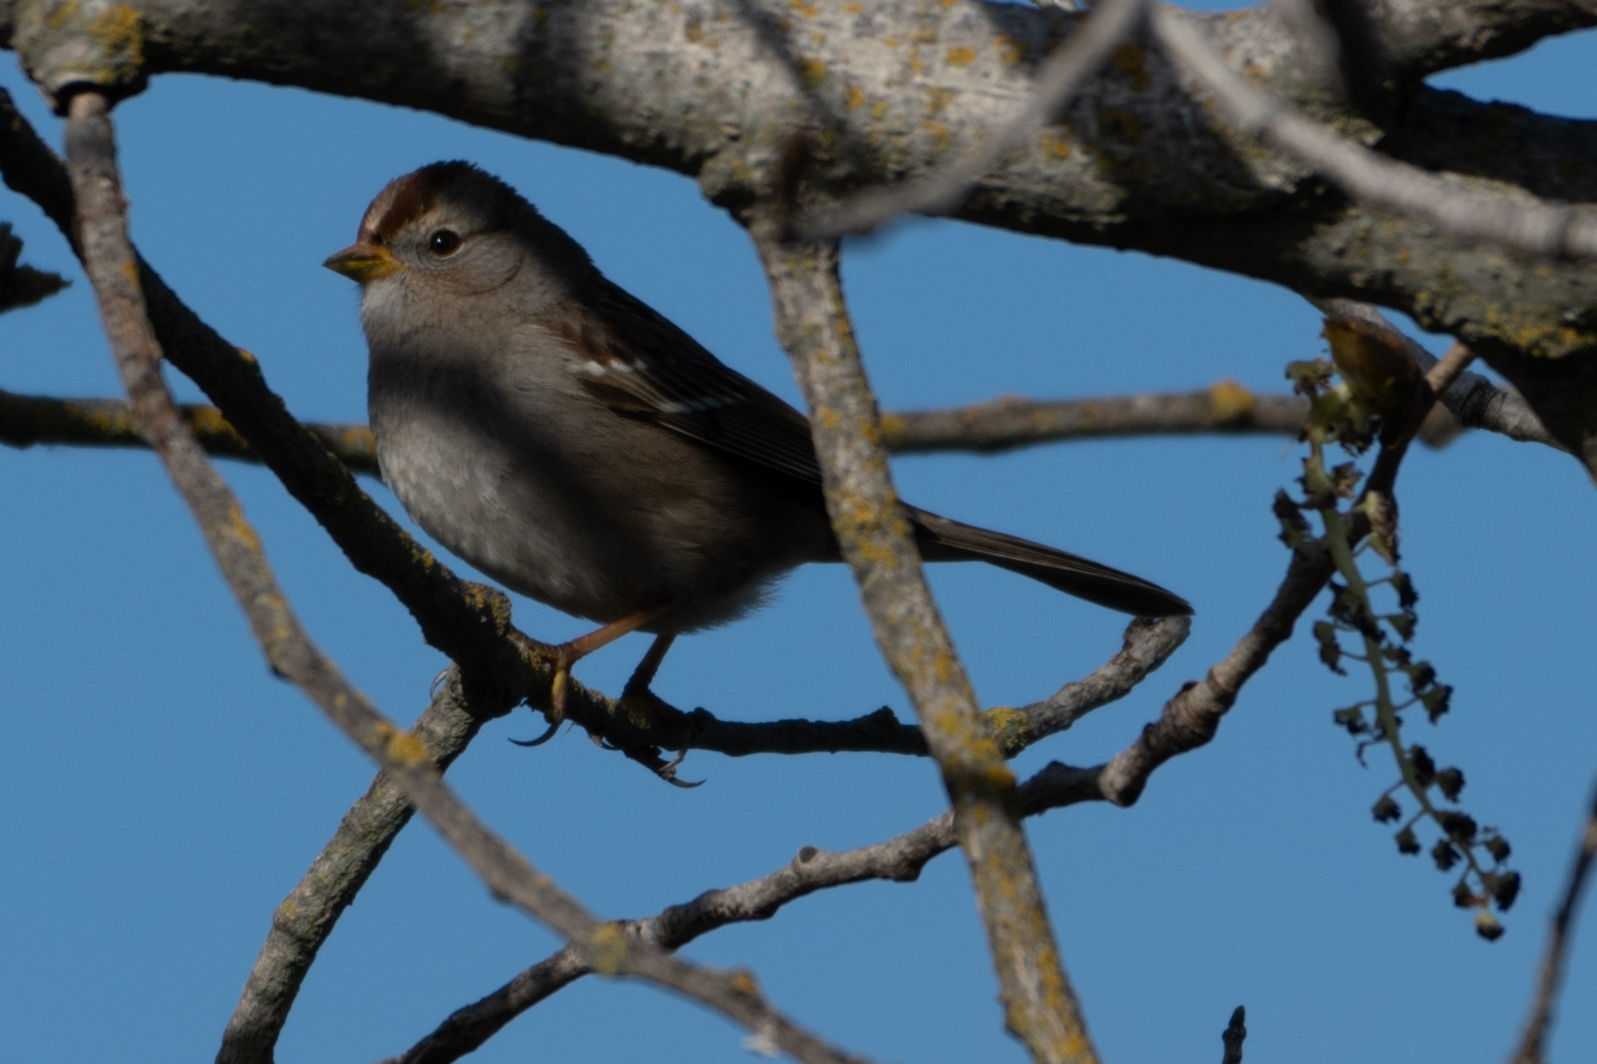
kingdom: Animalia
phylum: Chordata
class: Aves
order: Passeriformes
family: Passerellidae
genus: Zonotrichia
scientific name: Zonotrichia leucophrys
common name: White-crowned sparrow
